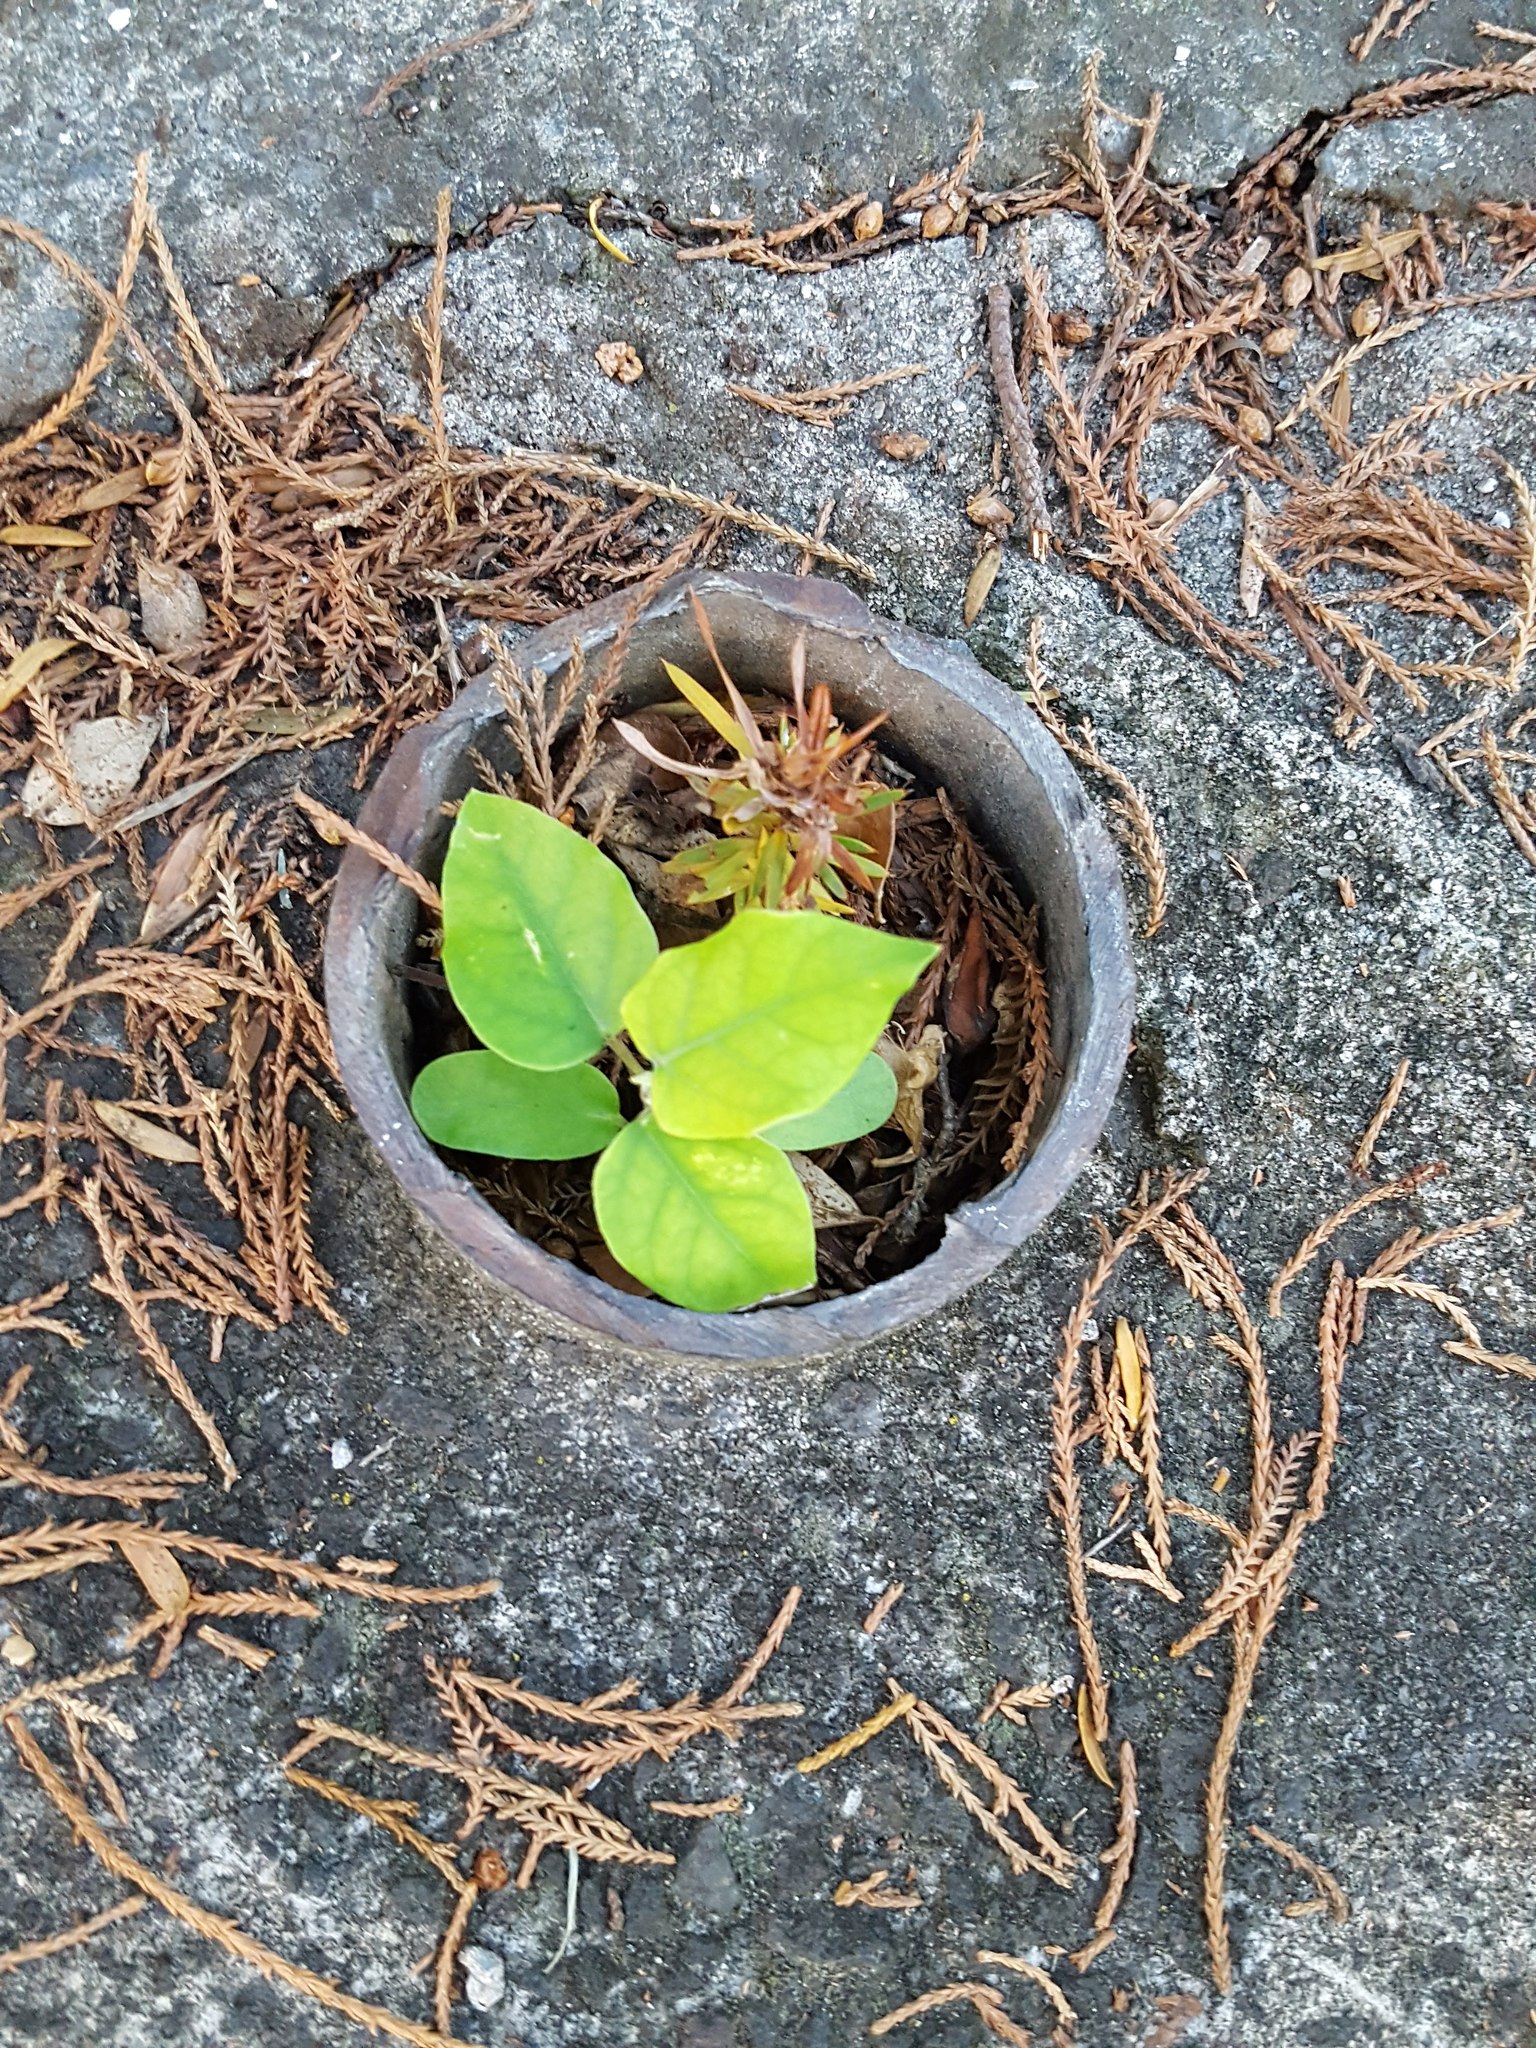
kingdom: Plantae
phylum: Tracheophyta
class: Magnoliopsida
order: Gentianales
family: Apocynaceae
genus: Araujia
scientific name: Araujia sericifera
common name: White bladderflower
